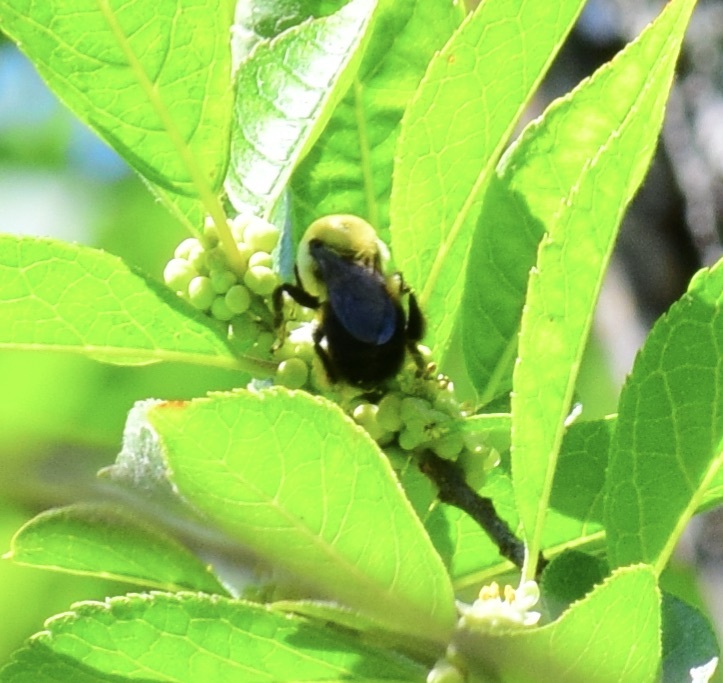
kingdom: Animalia
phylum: Arthropoda
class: Insecta
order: Hymenoptera
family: Apidae
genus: Bombus
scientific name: Bombus griseocollis
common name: Brown-belted bumble bee
